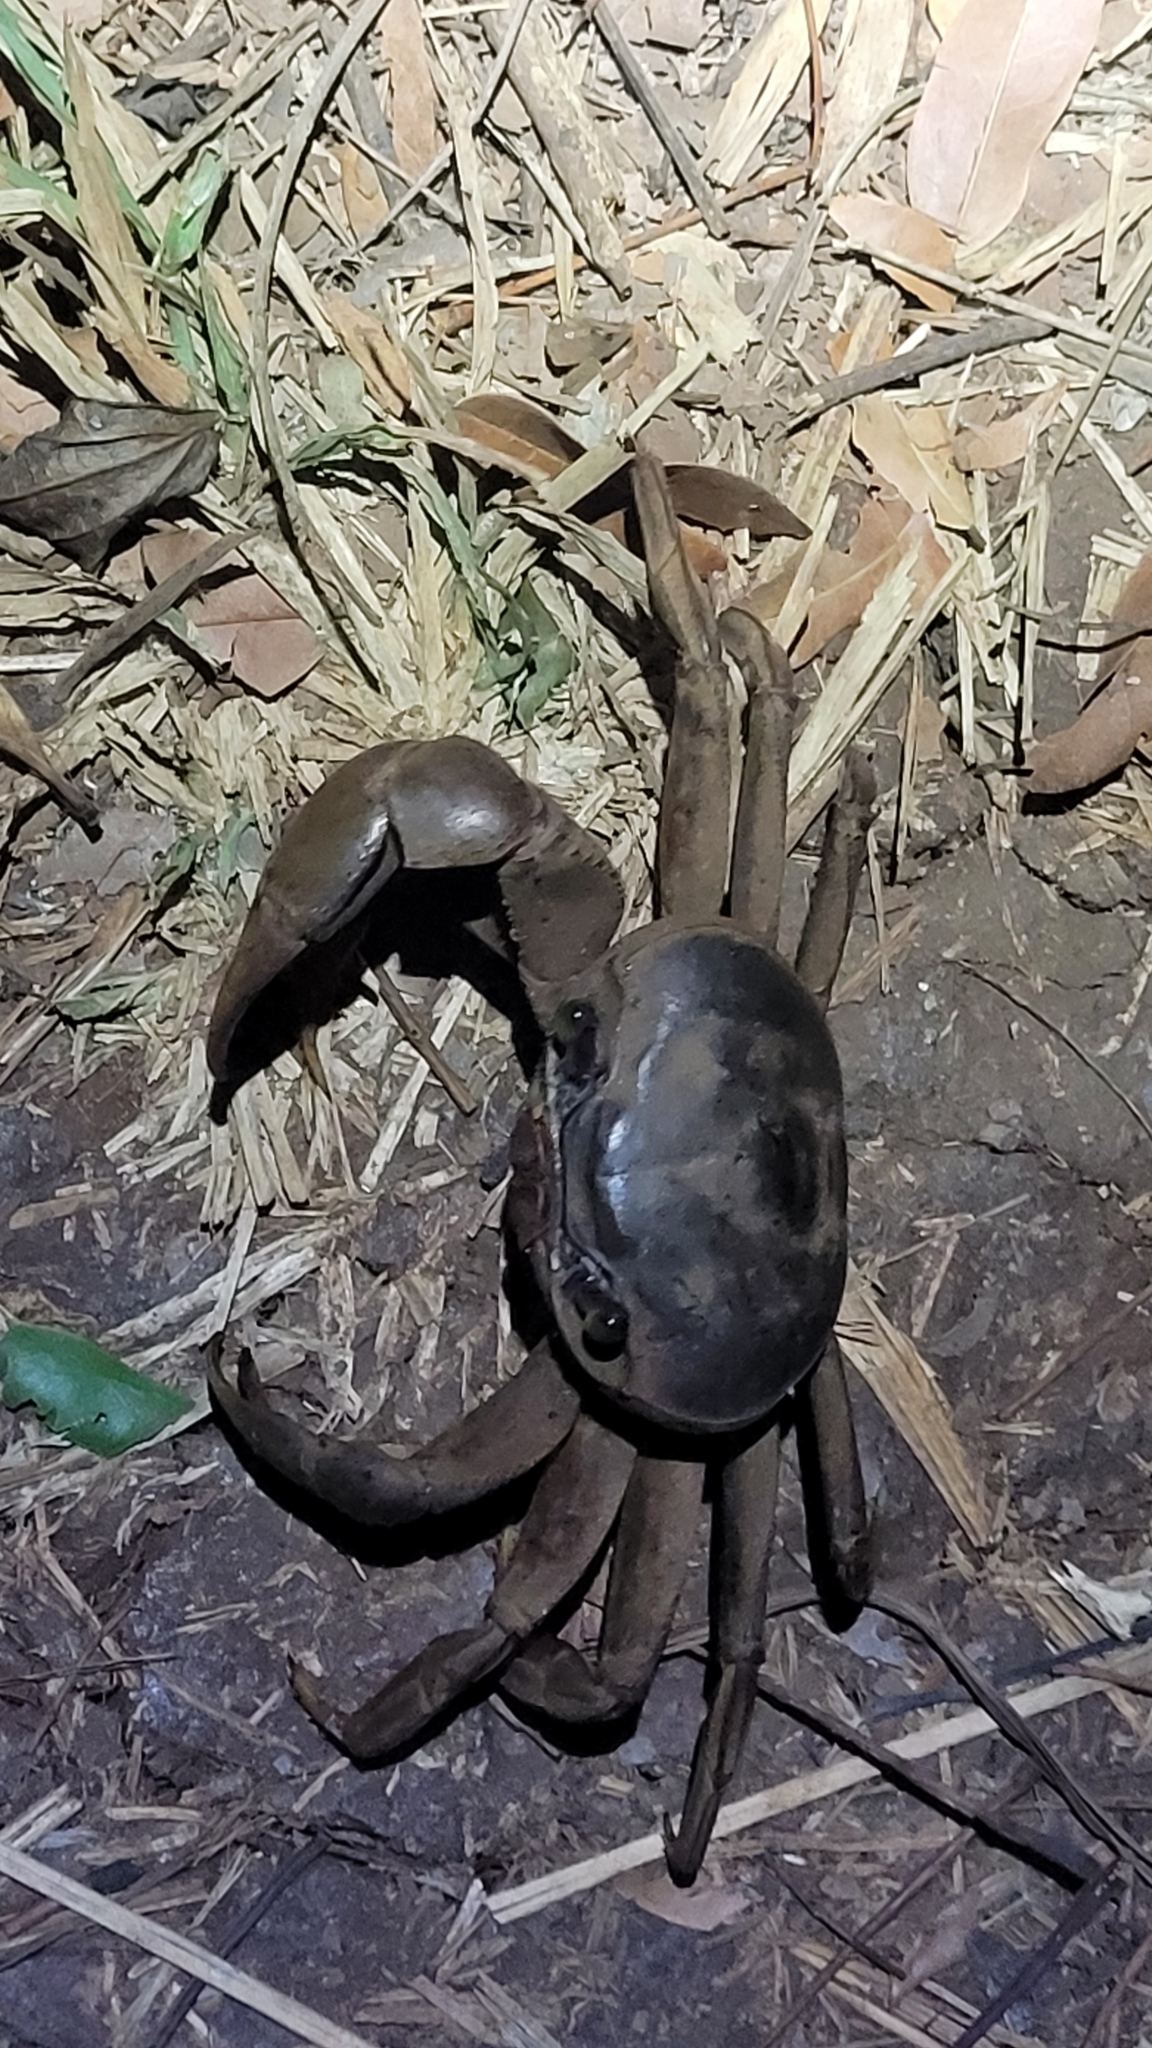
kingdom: Animalia
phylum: Arthropoda
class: Malacostraca
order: Decapoda
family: Gecarcinidae
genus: Cardisoma
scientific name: Cardisoma guanhumi
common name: Great land crab
